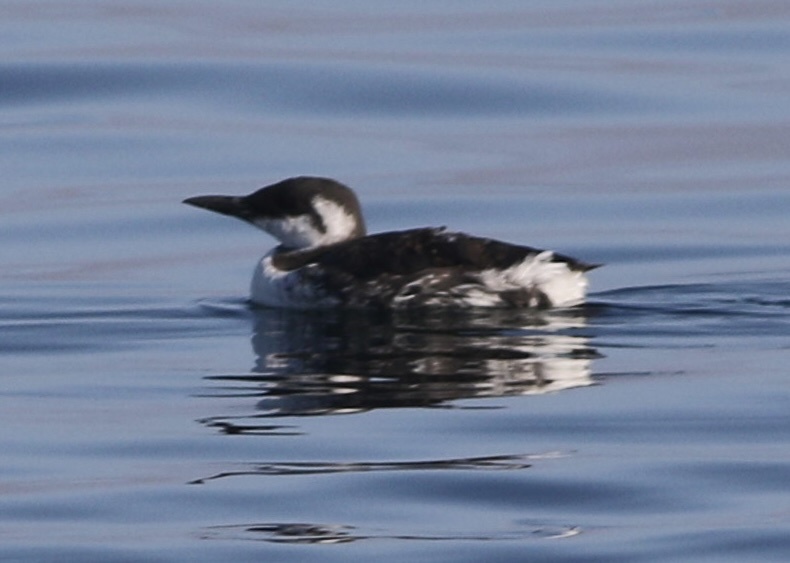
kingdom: Animalia
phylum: Chordata
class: Aves
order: Charadriiformes
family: Alcidae
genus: Uria
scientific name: Uria aalge
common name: Common murre
